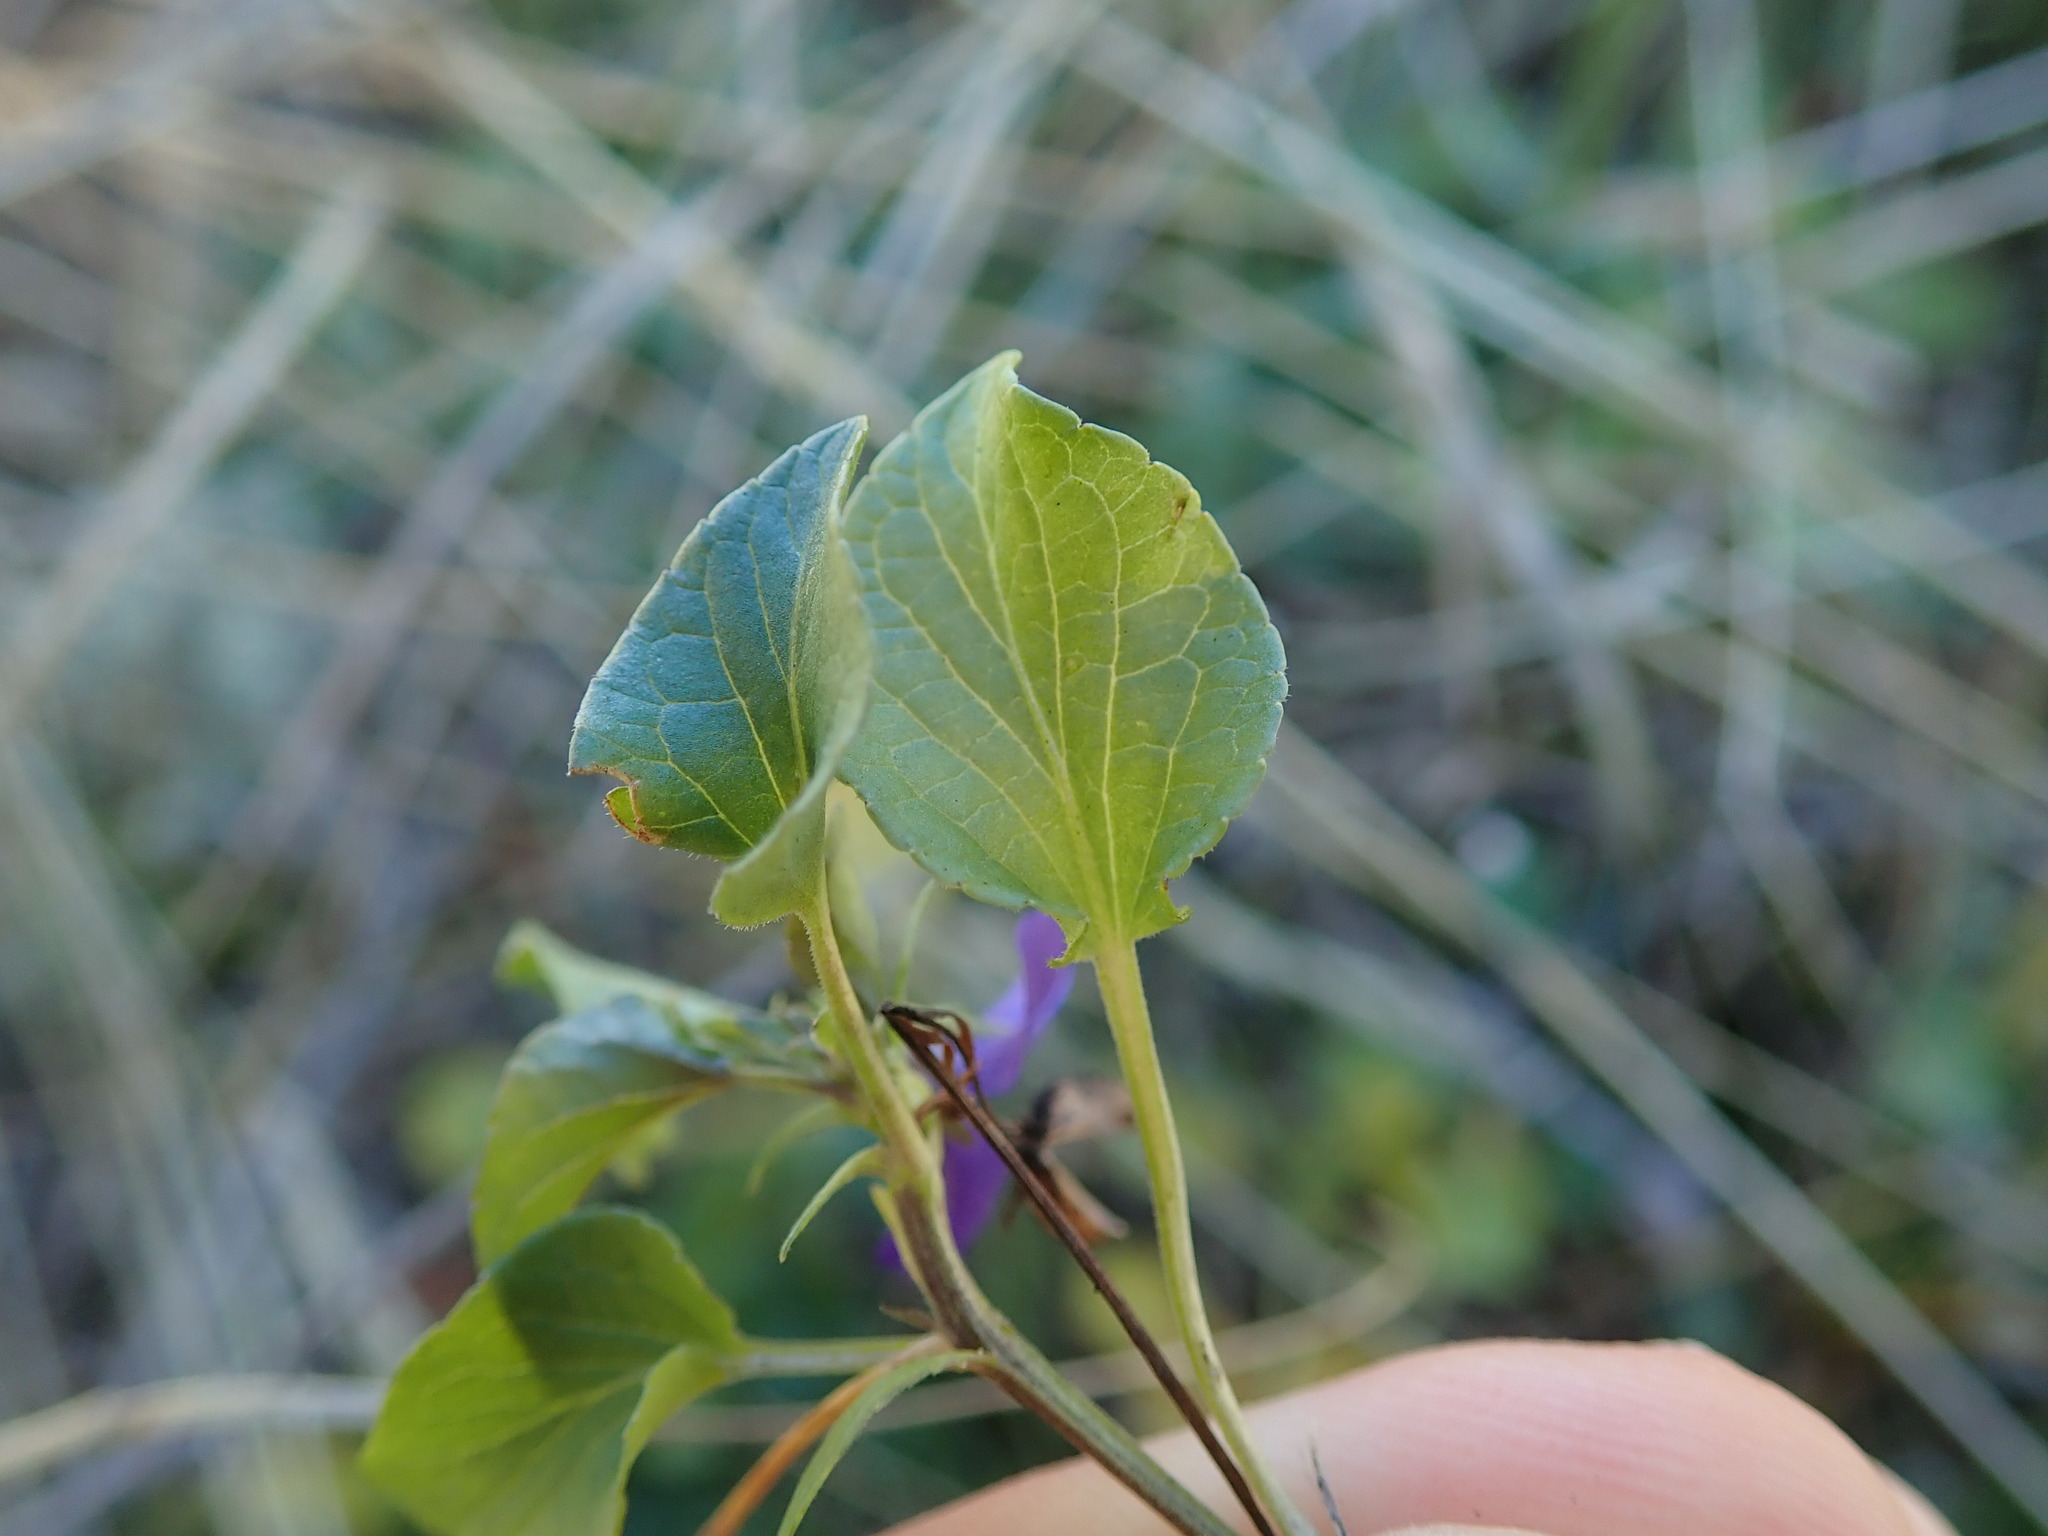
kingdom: Plantae
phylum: Tracheophyta
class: Magnoliopsida
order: Malpighiales
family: Violaceae
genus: Viola
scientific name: Viola adunca
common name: Sand violet
